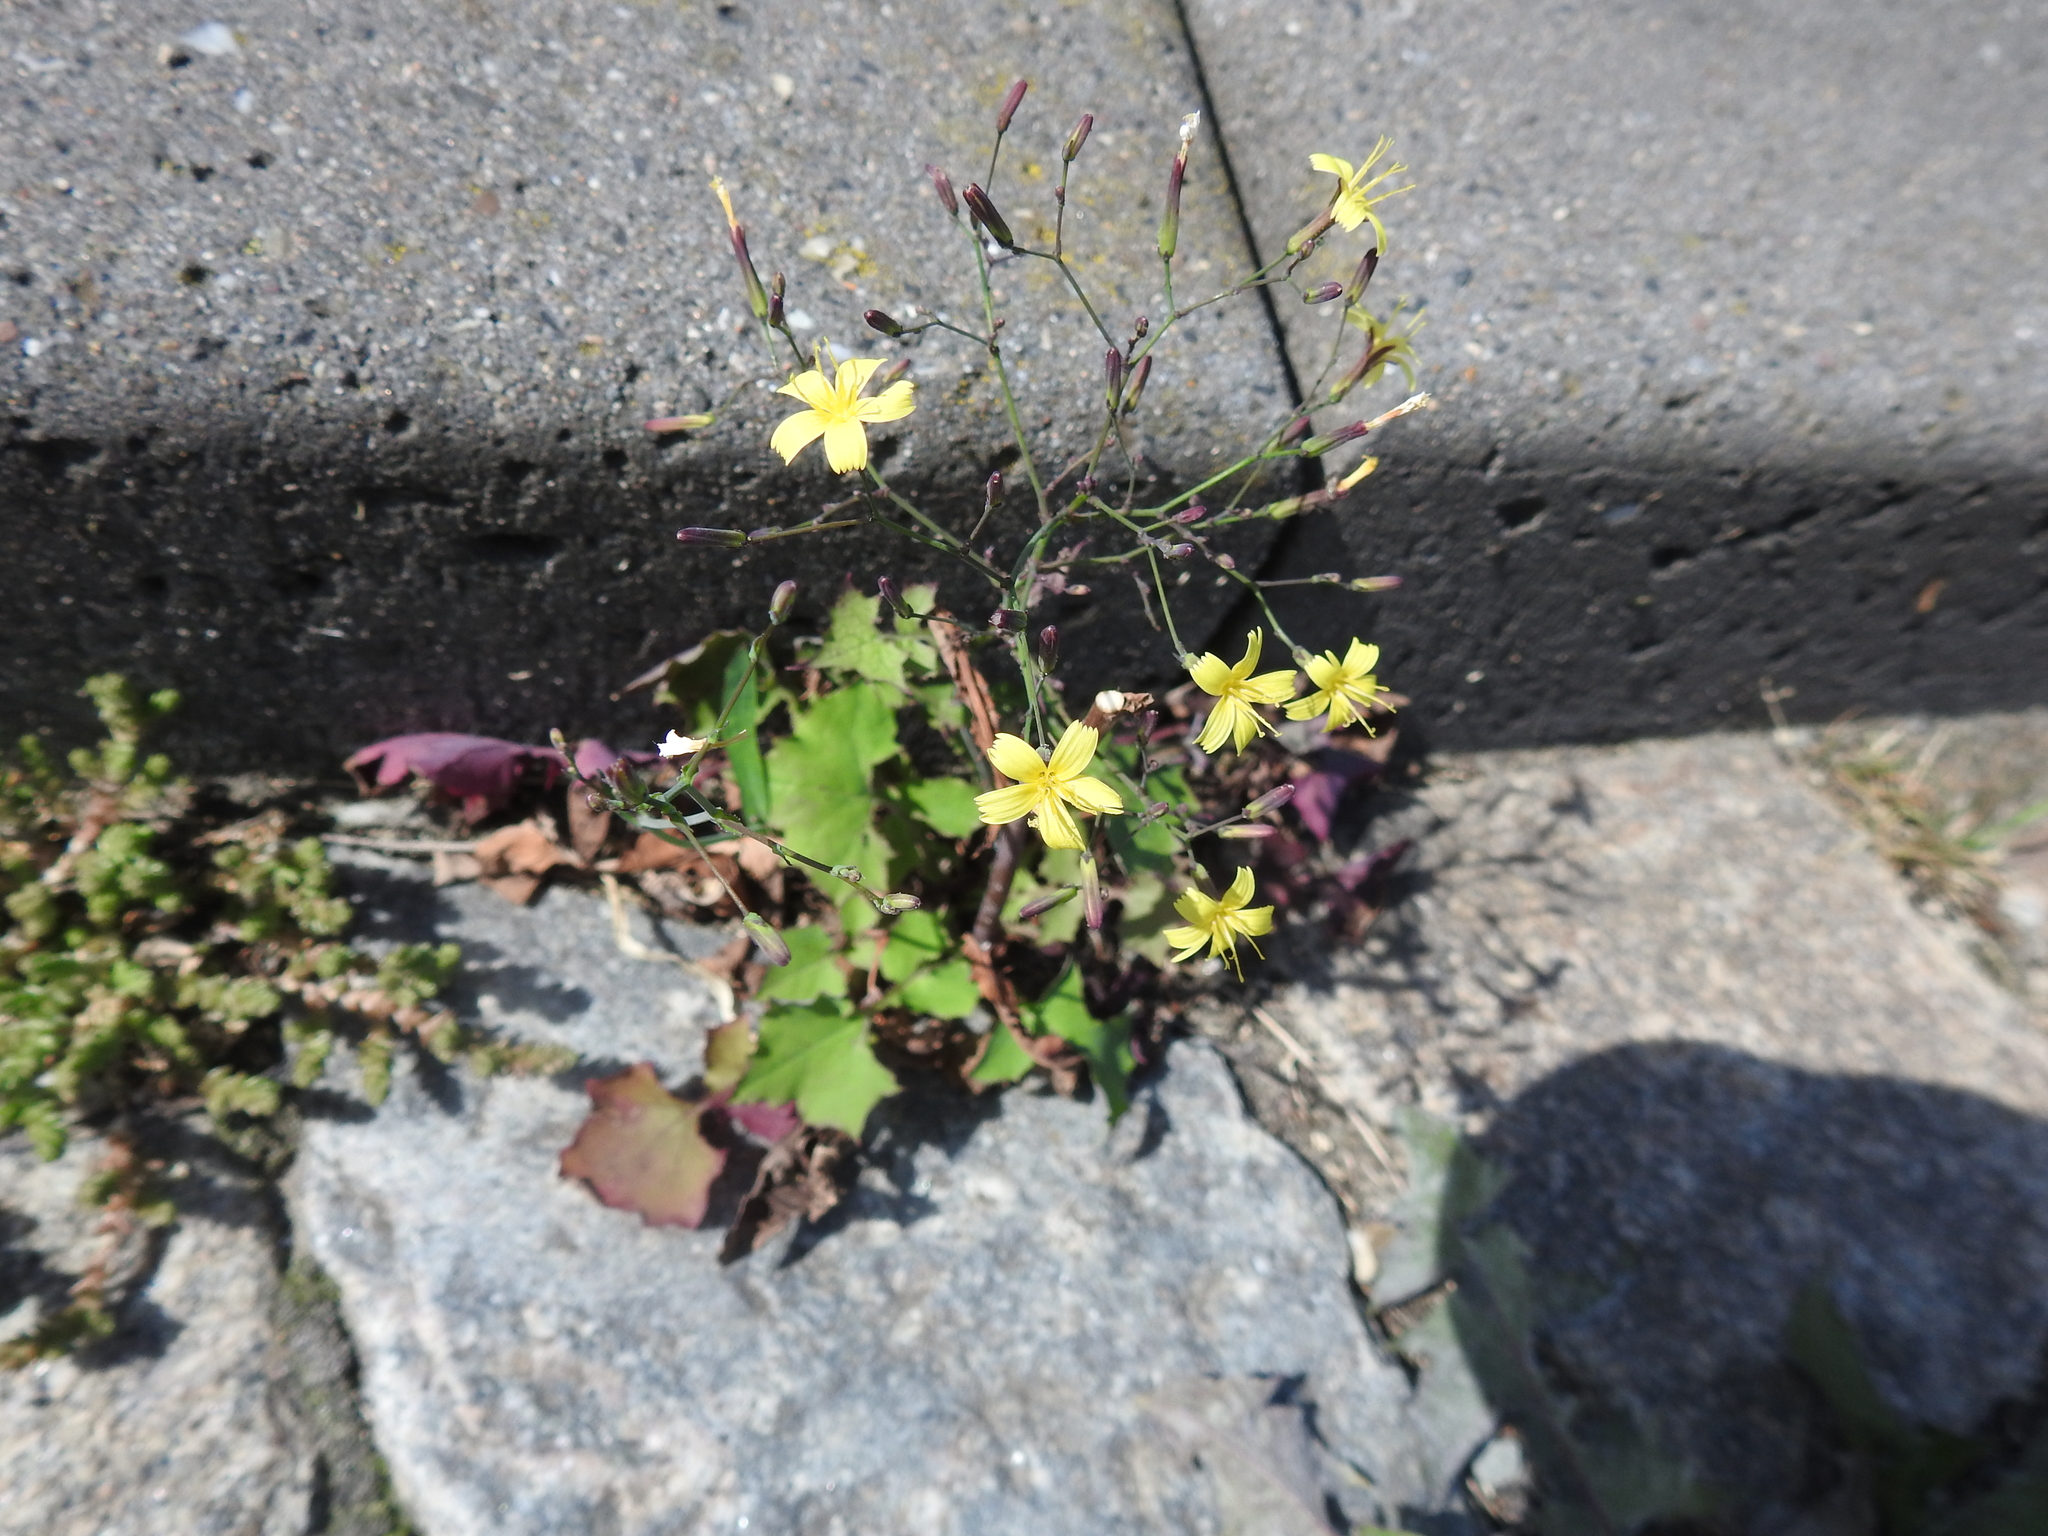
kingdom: Plantae
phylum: Tracheophyta
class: Magnoliopsida
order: Asterales
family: Asteraceae
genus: Mycelis
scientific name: Mycelis muralis
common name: Wall lettuce
